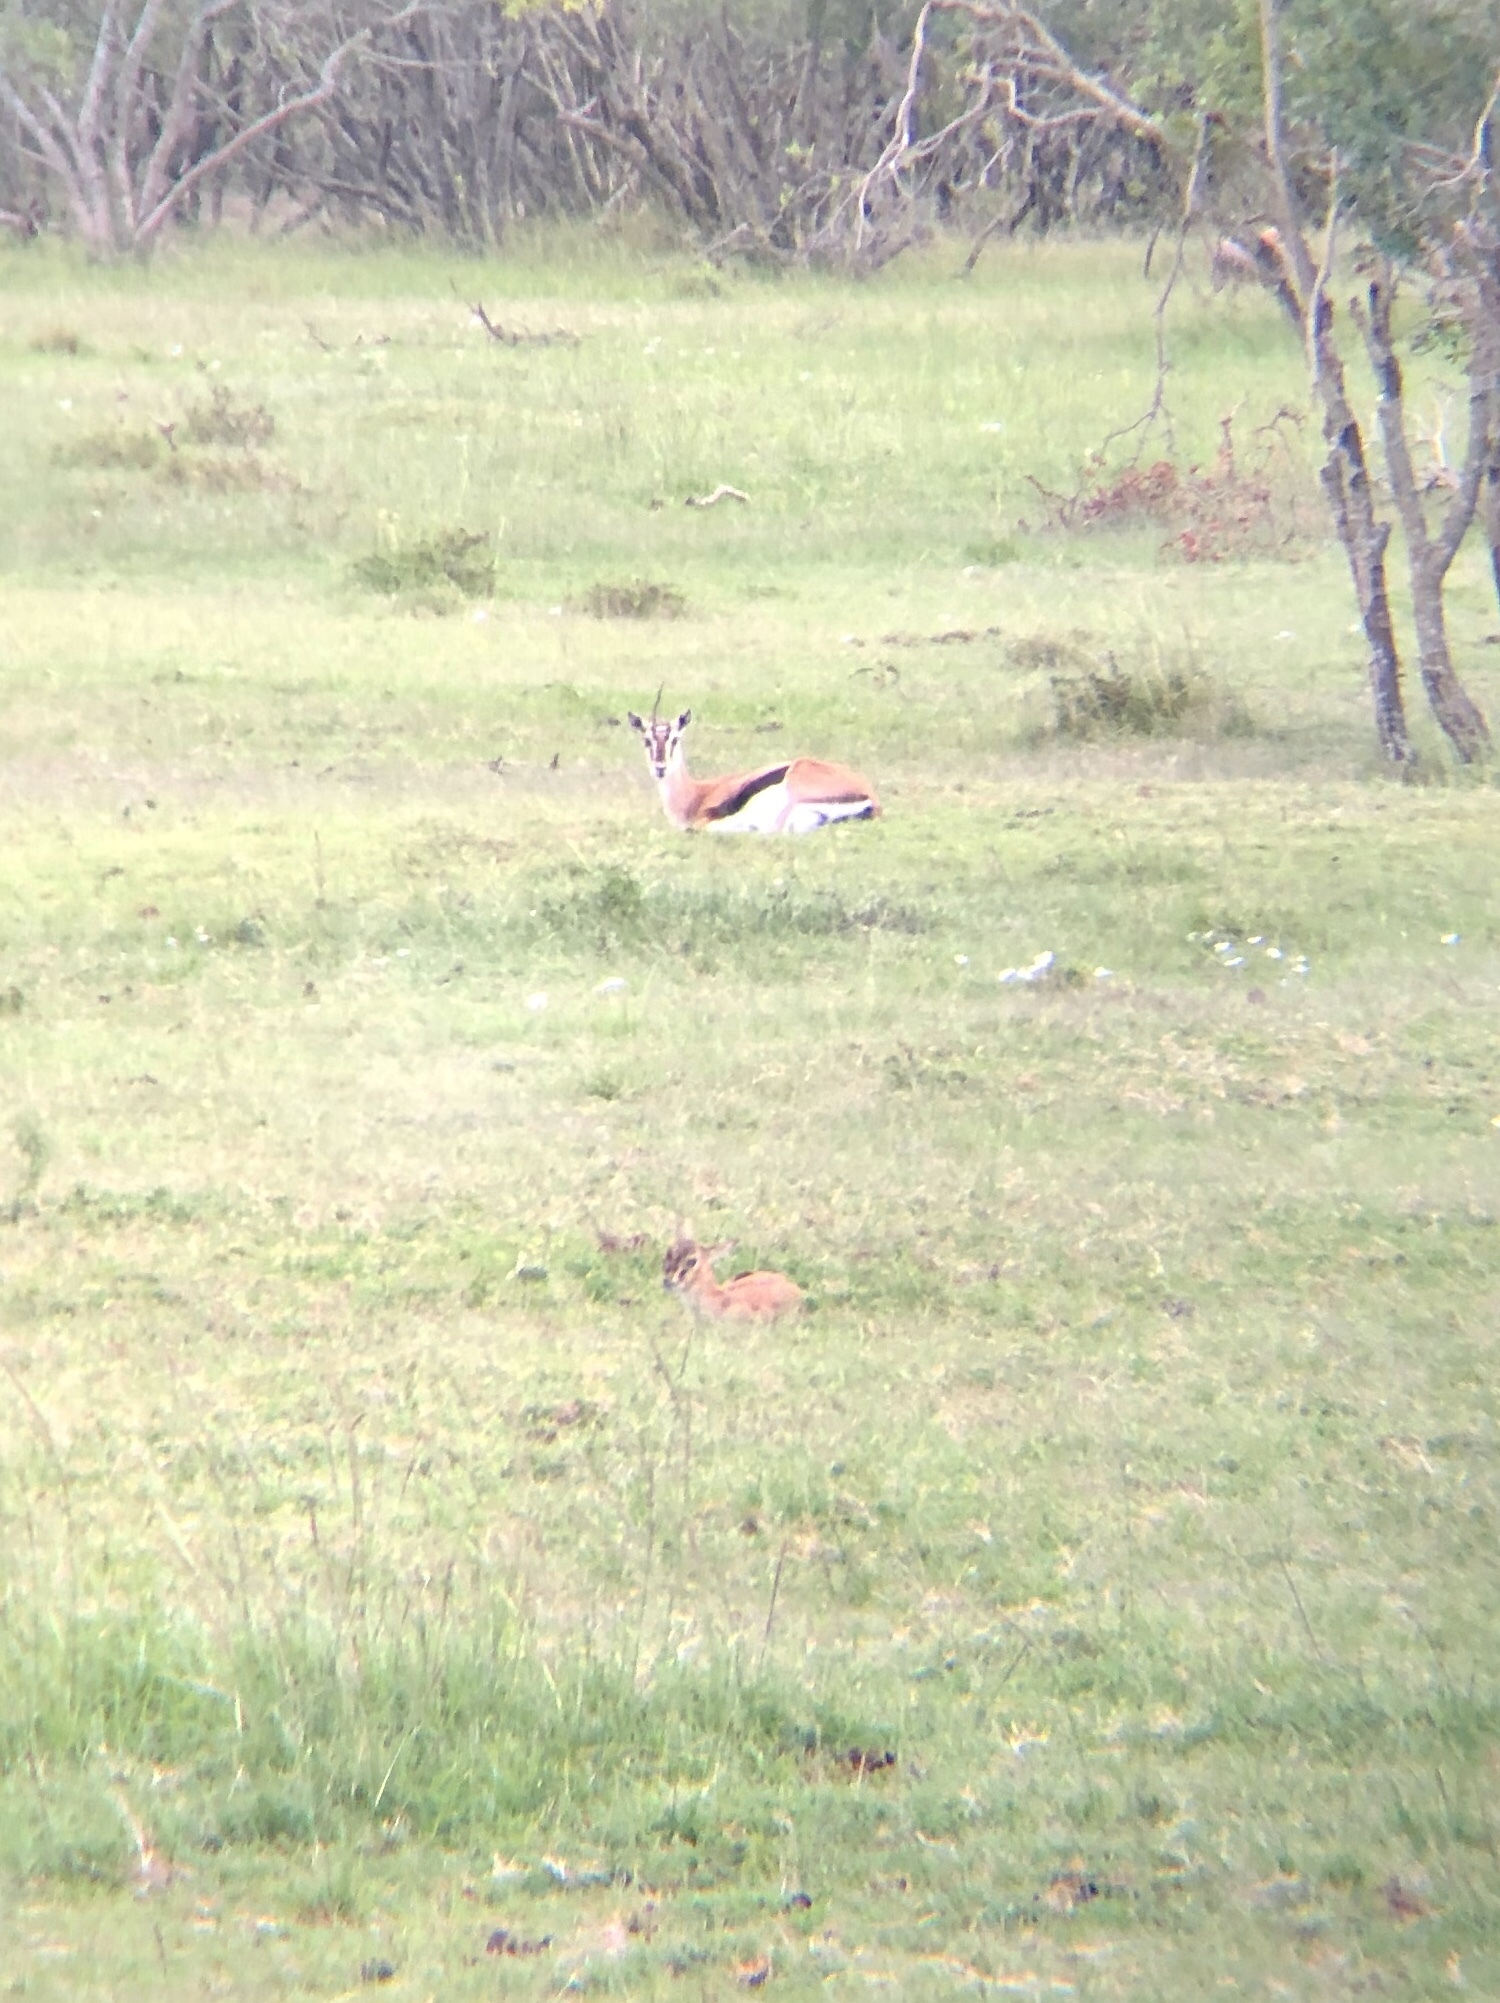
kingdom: Animalia
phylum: Chordata
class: Mammalia
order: Artiodactyla
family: Bovidae
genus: Eudorcas
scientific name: Eudorcas thomsonii
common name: Thomson's gazelle
